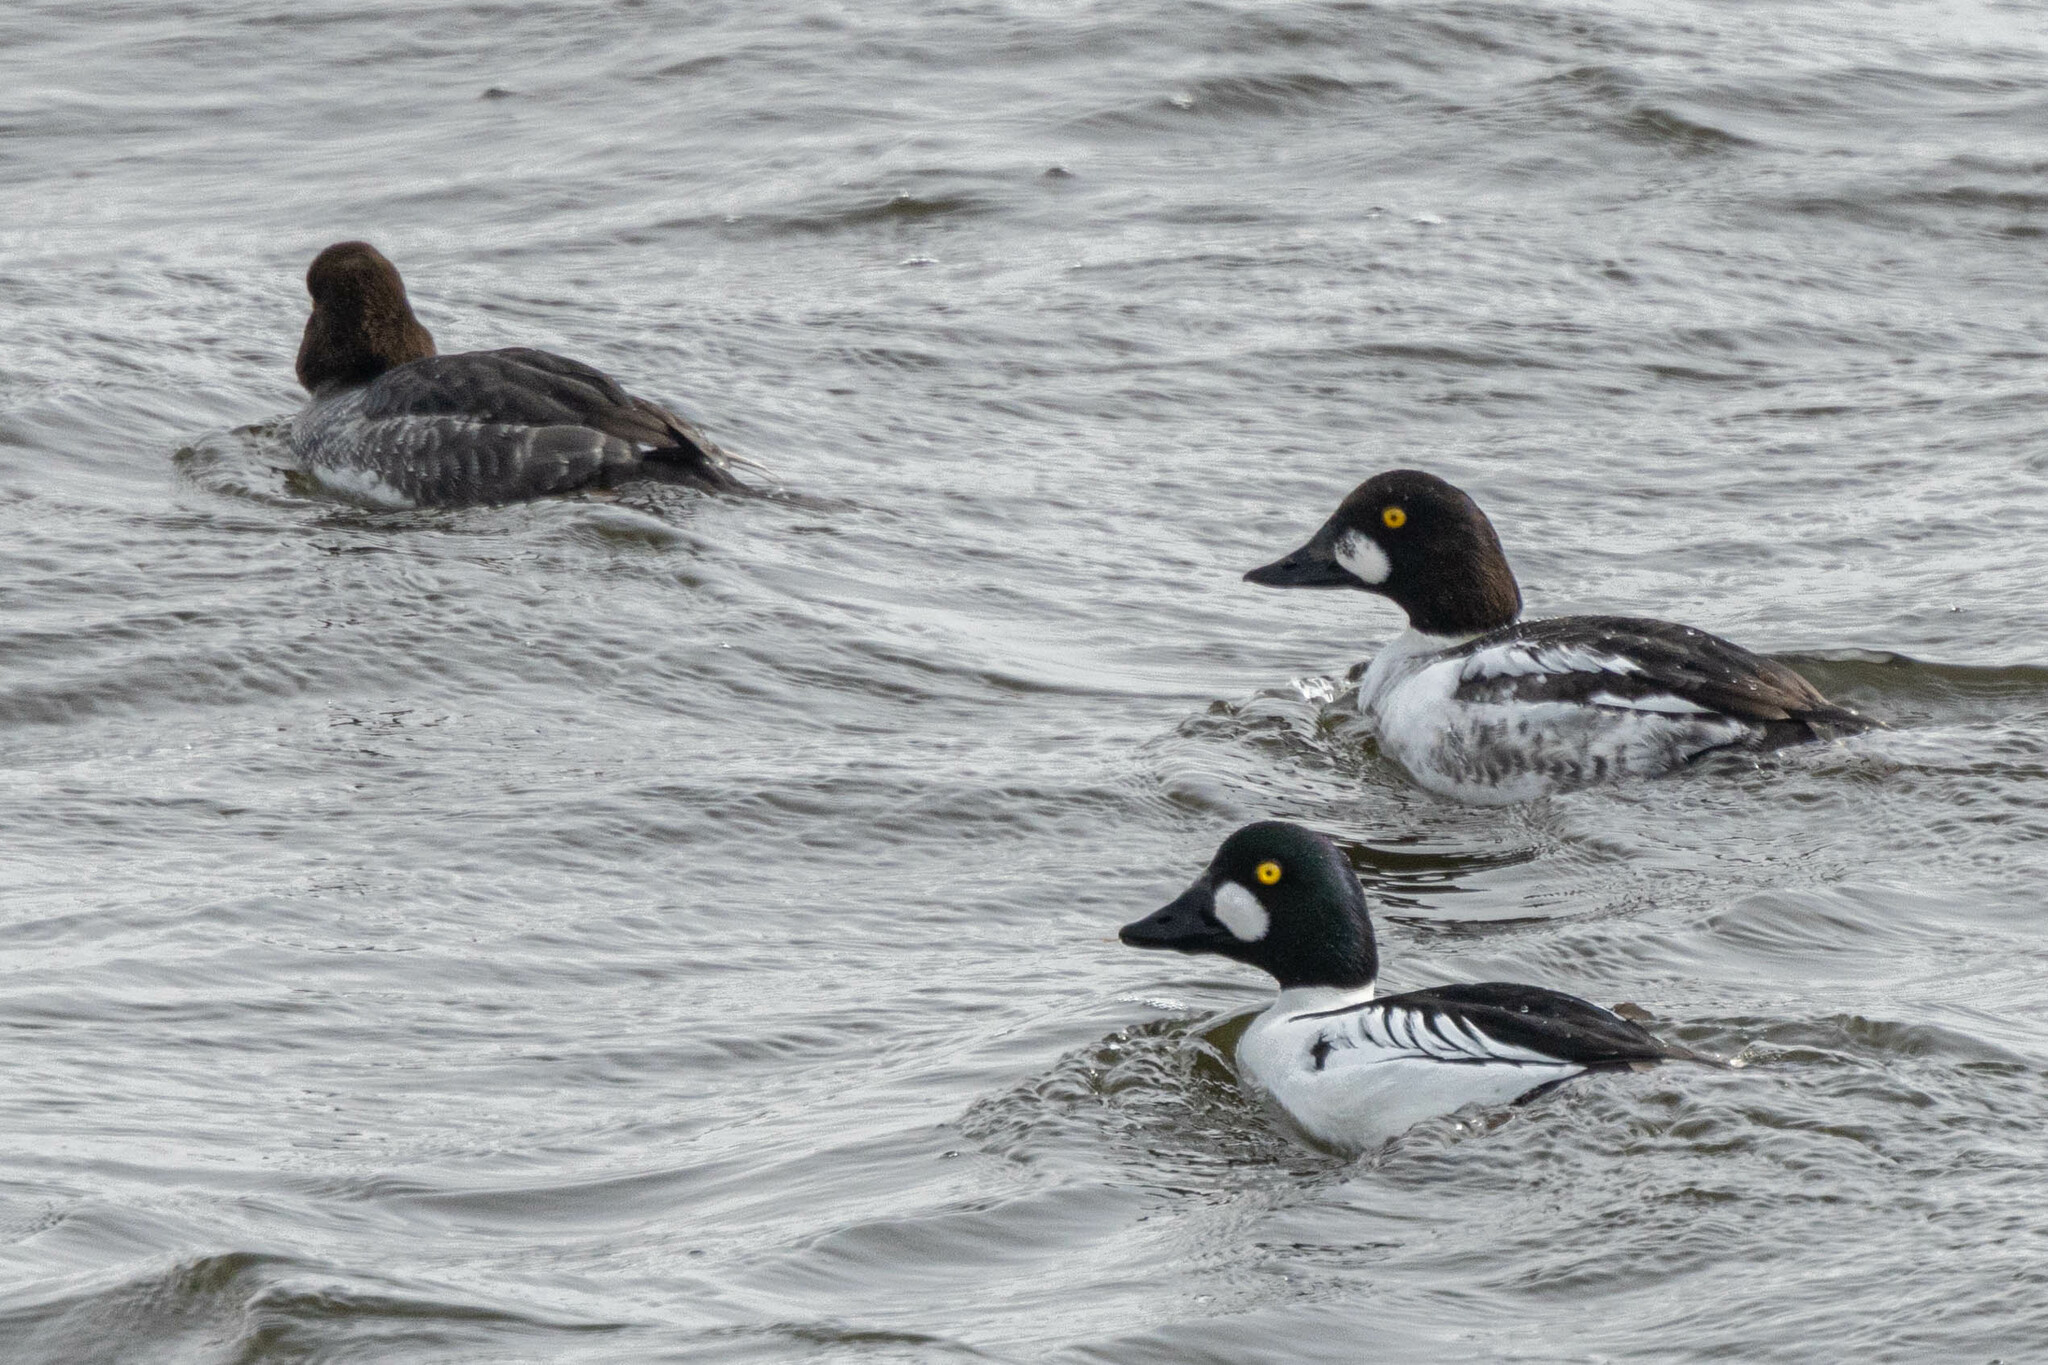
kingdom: Animalia
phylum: Chordata
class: Aves
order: Anseriformes
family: Anatidae
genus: Bucephala
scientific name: Bucephala clangula
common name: Common goldeneye
